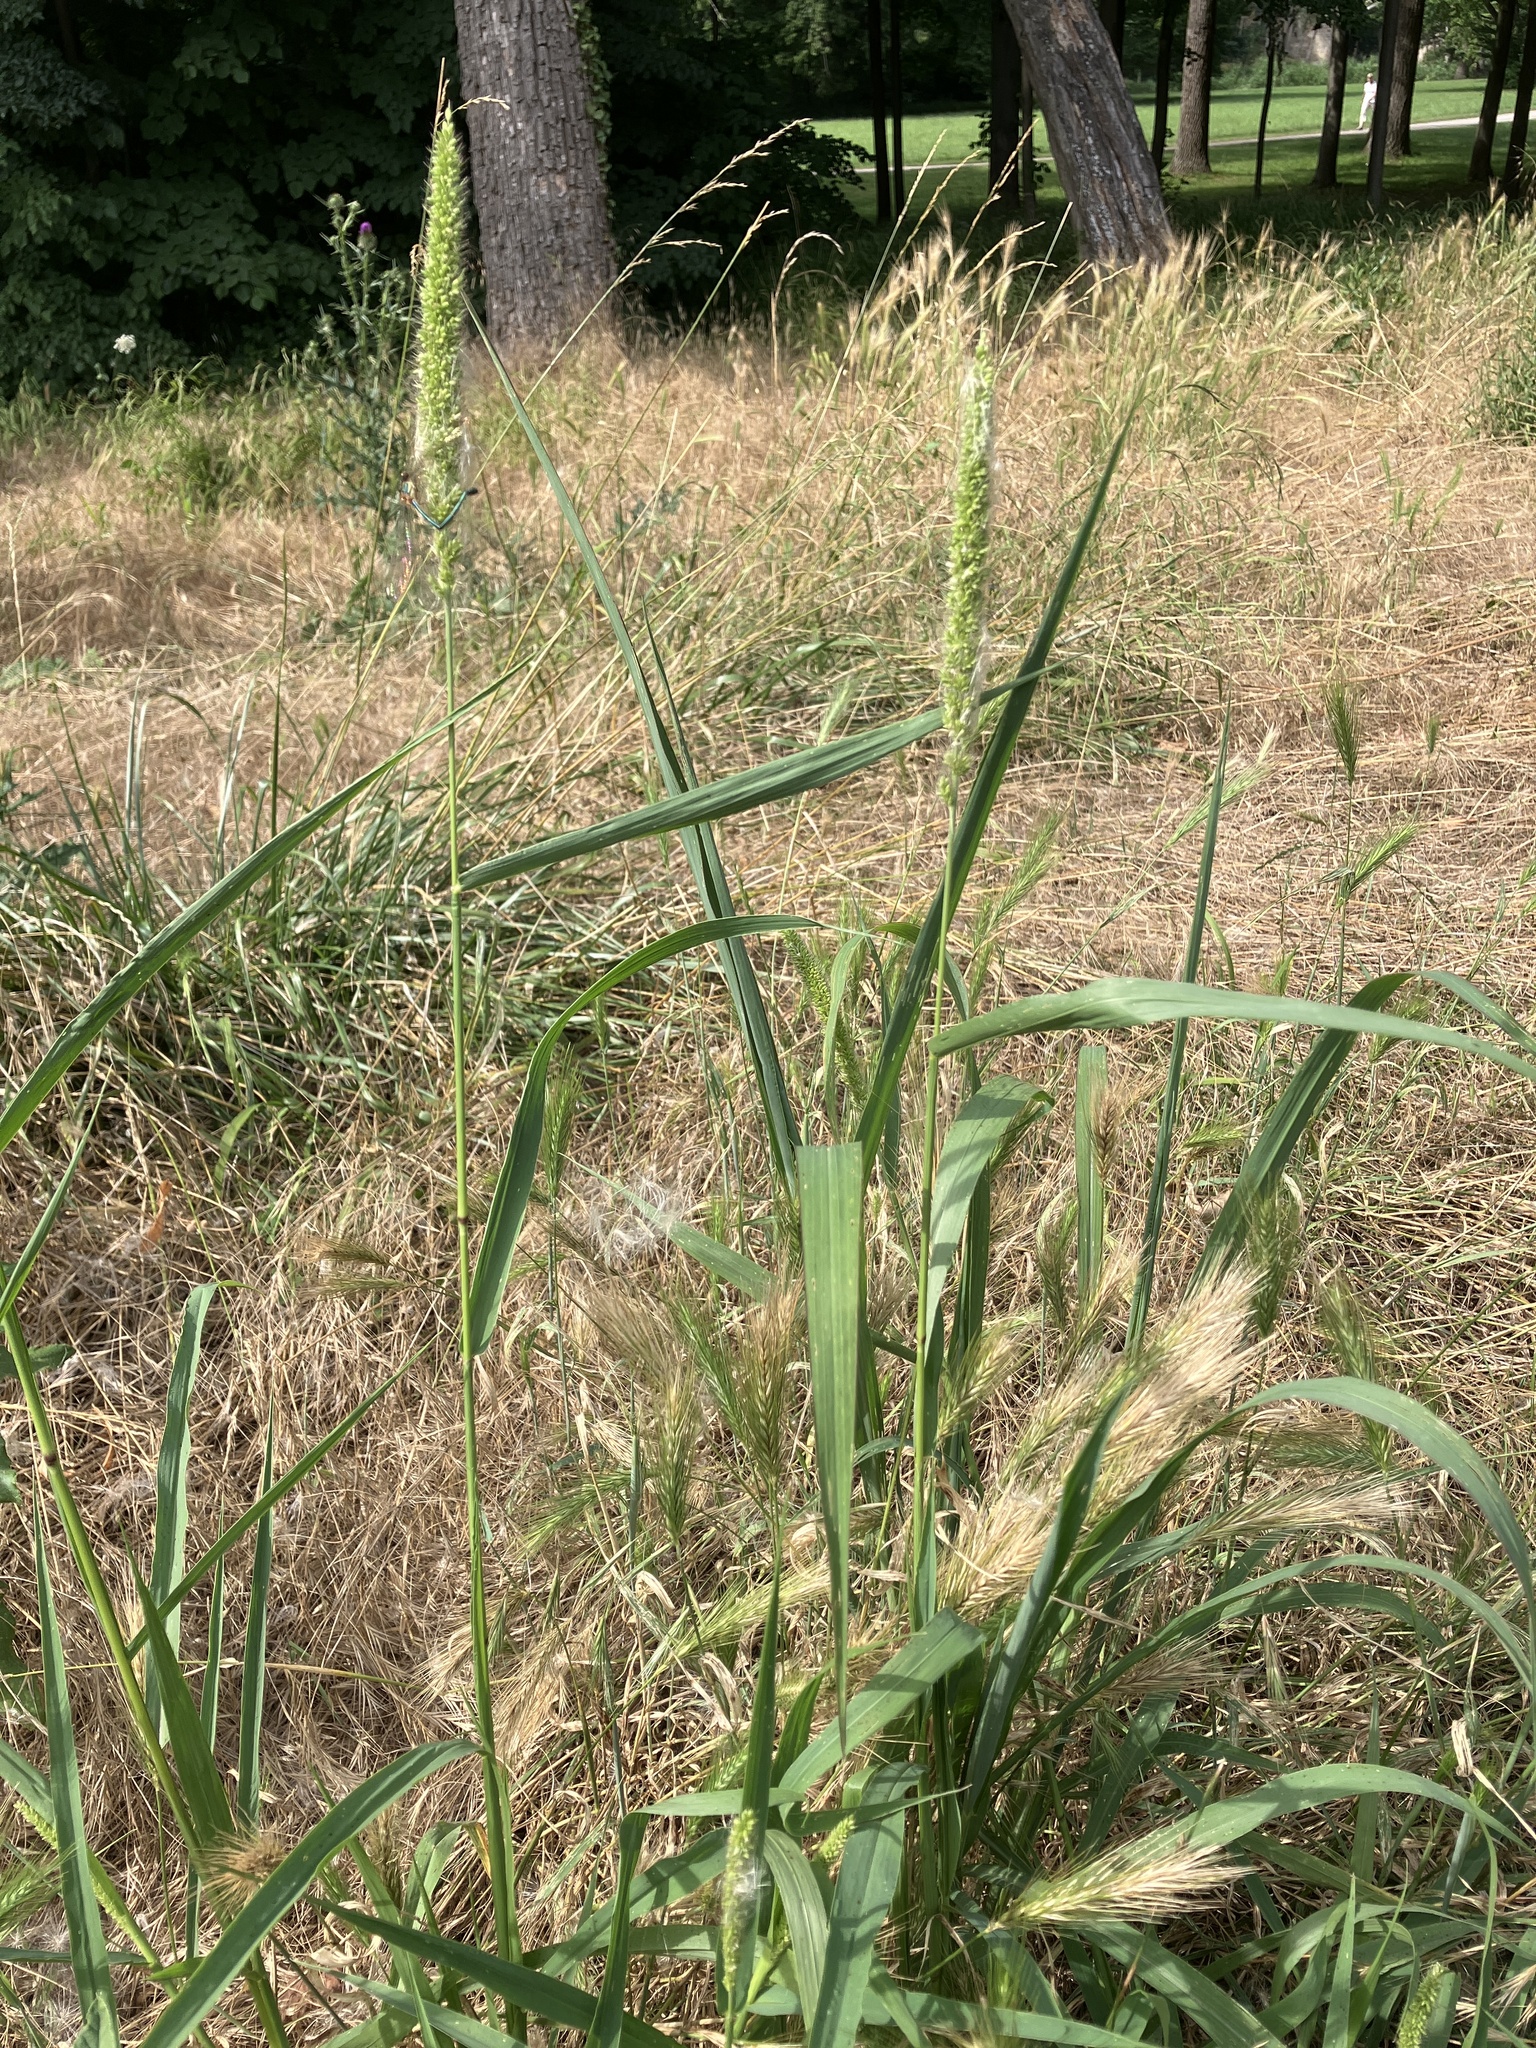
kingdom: Plantae
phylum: Tracheophyta
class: Liliopsida
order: Poales
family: Poaceae
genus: Setaria
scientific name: Setaria verticillata
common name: Hooked bristlegrass
